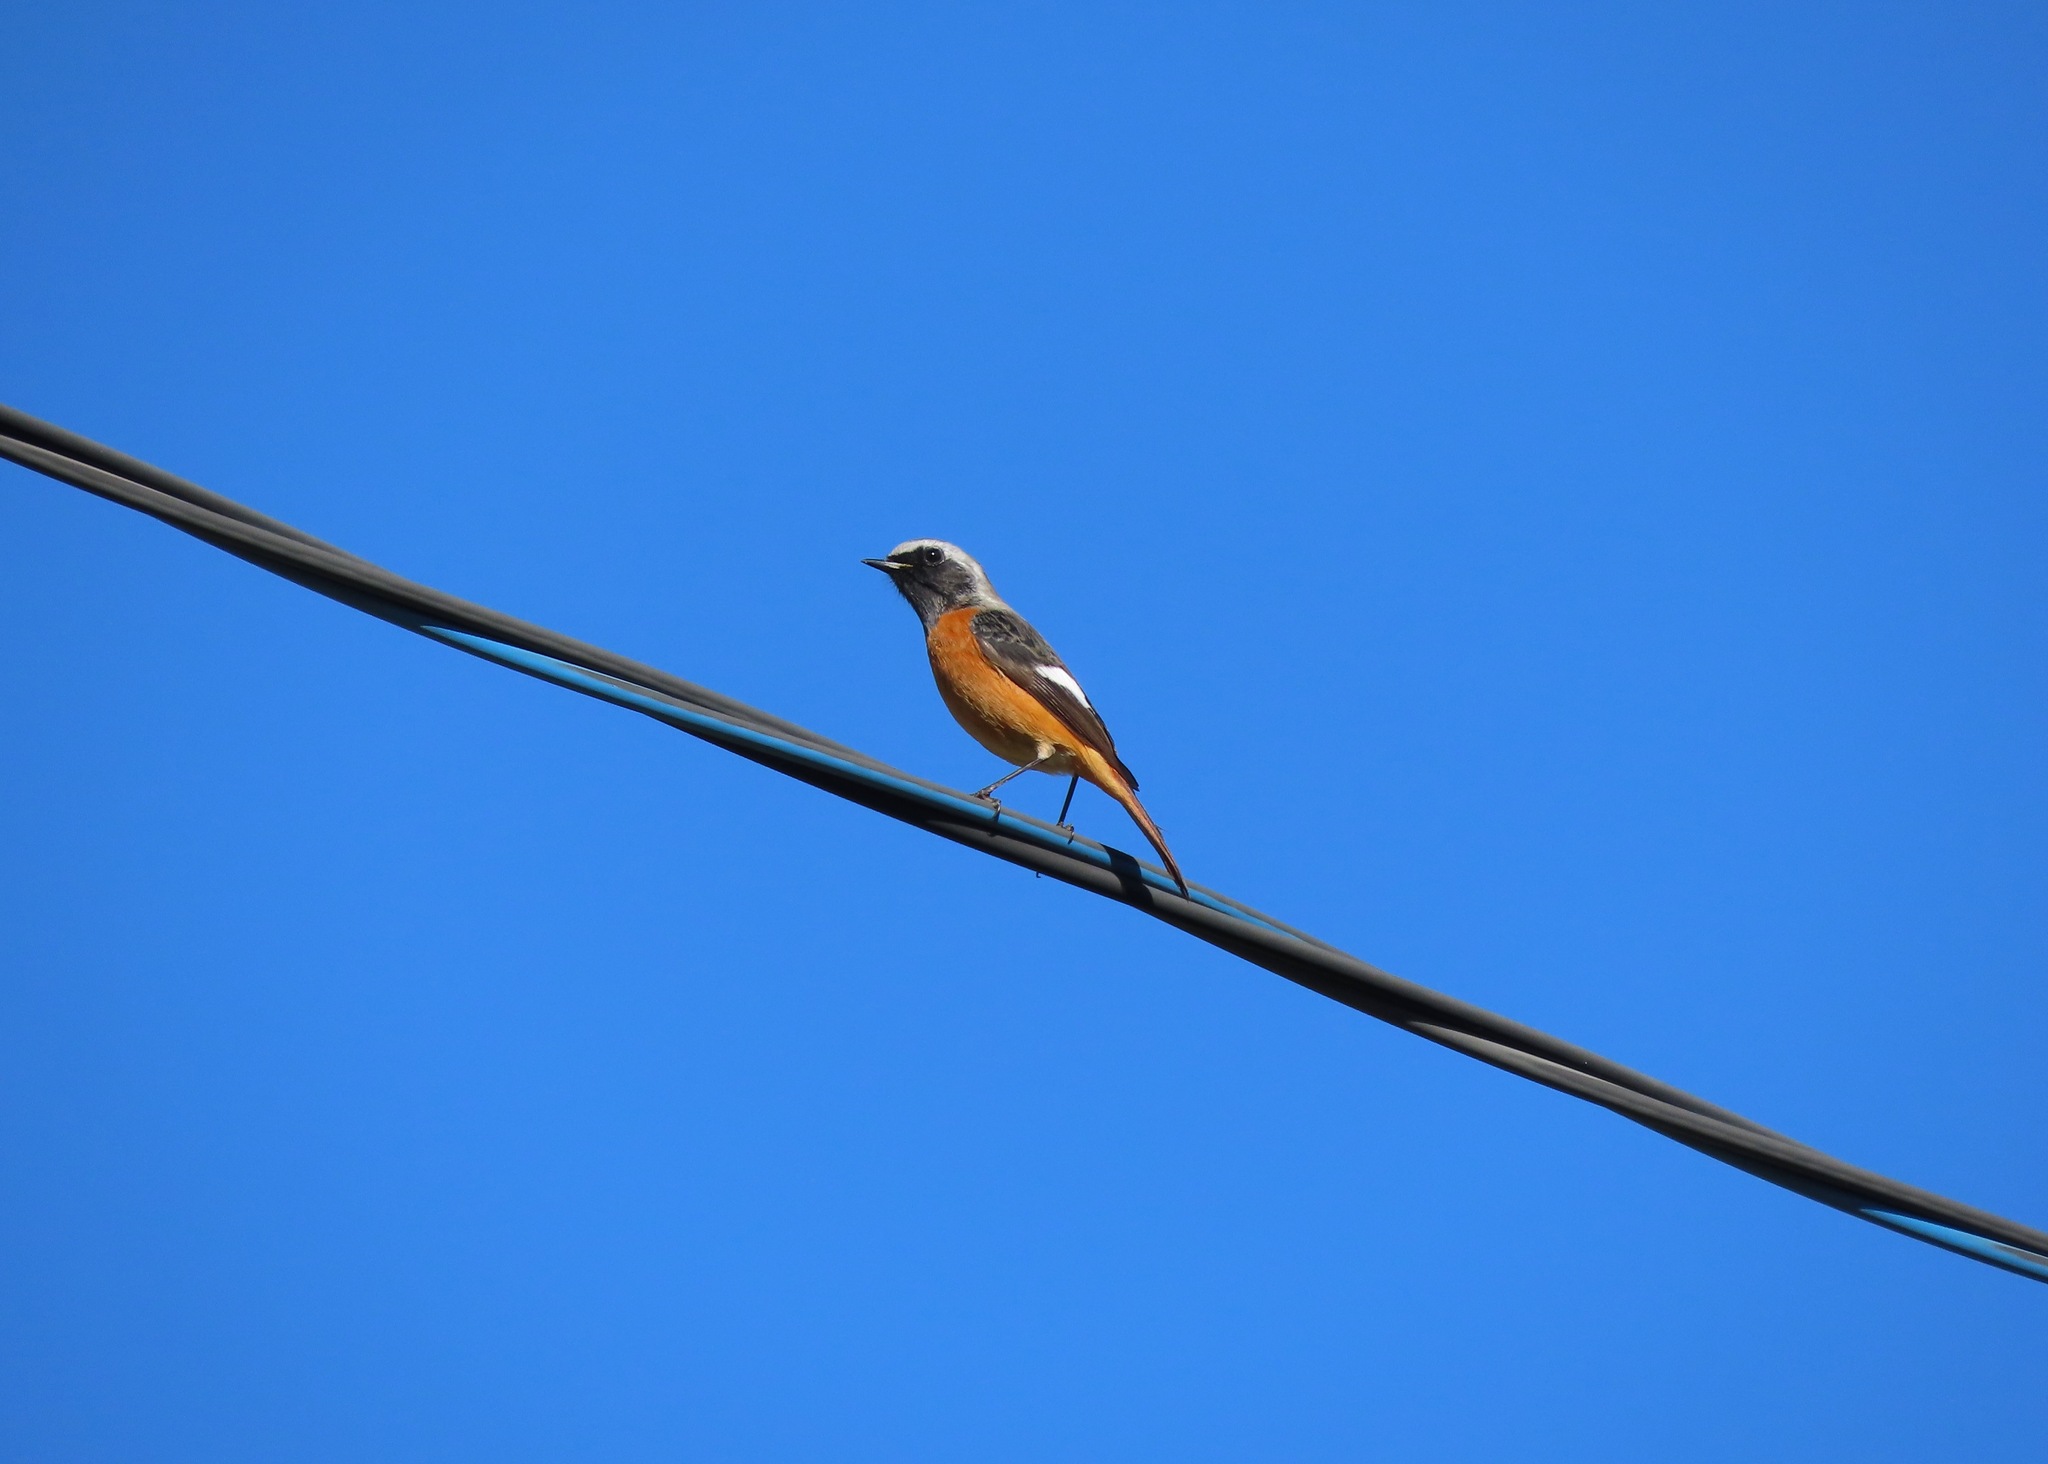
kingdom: Animalia
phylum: Chordata
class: Aves
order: Passeriformes
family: Muscicapidae
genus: Phoenicurus
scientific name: Phoenicurus auroreus
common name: Daurian redstart
